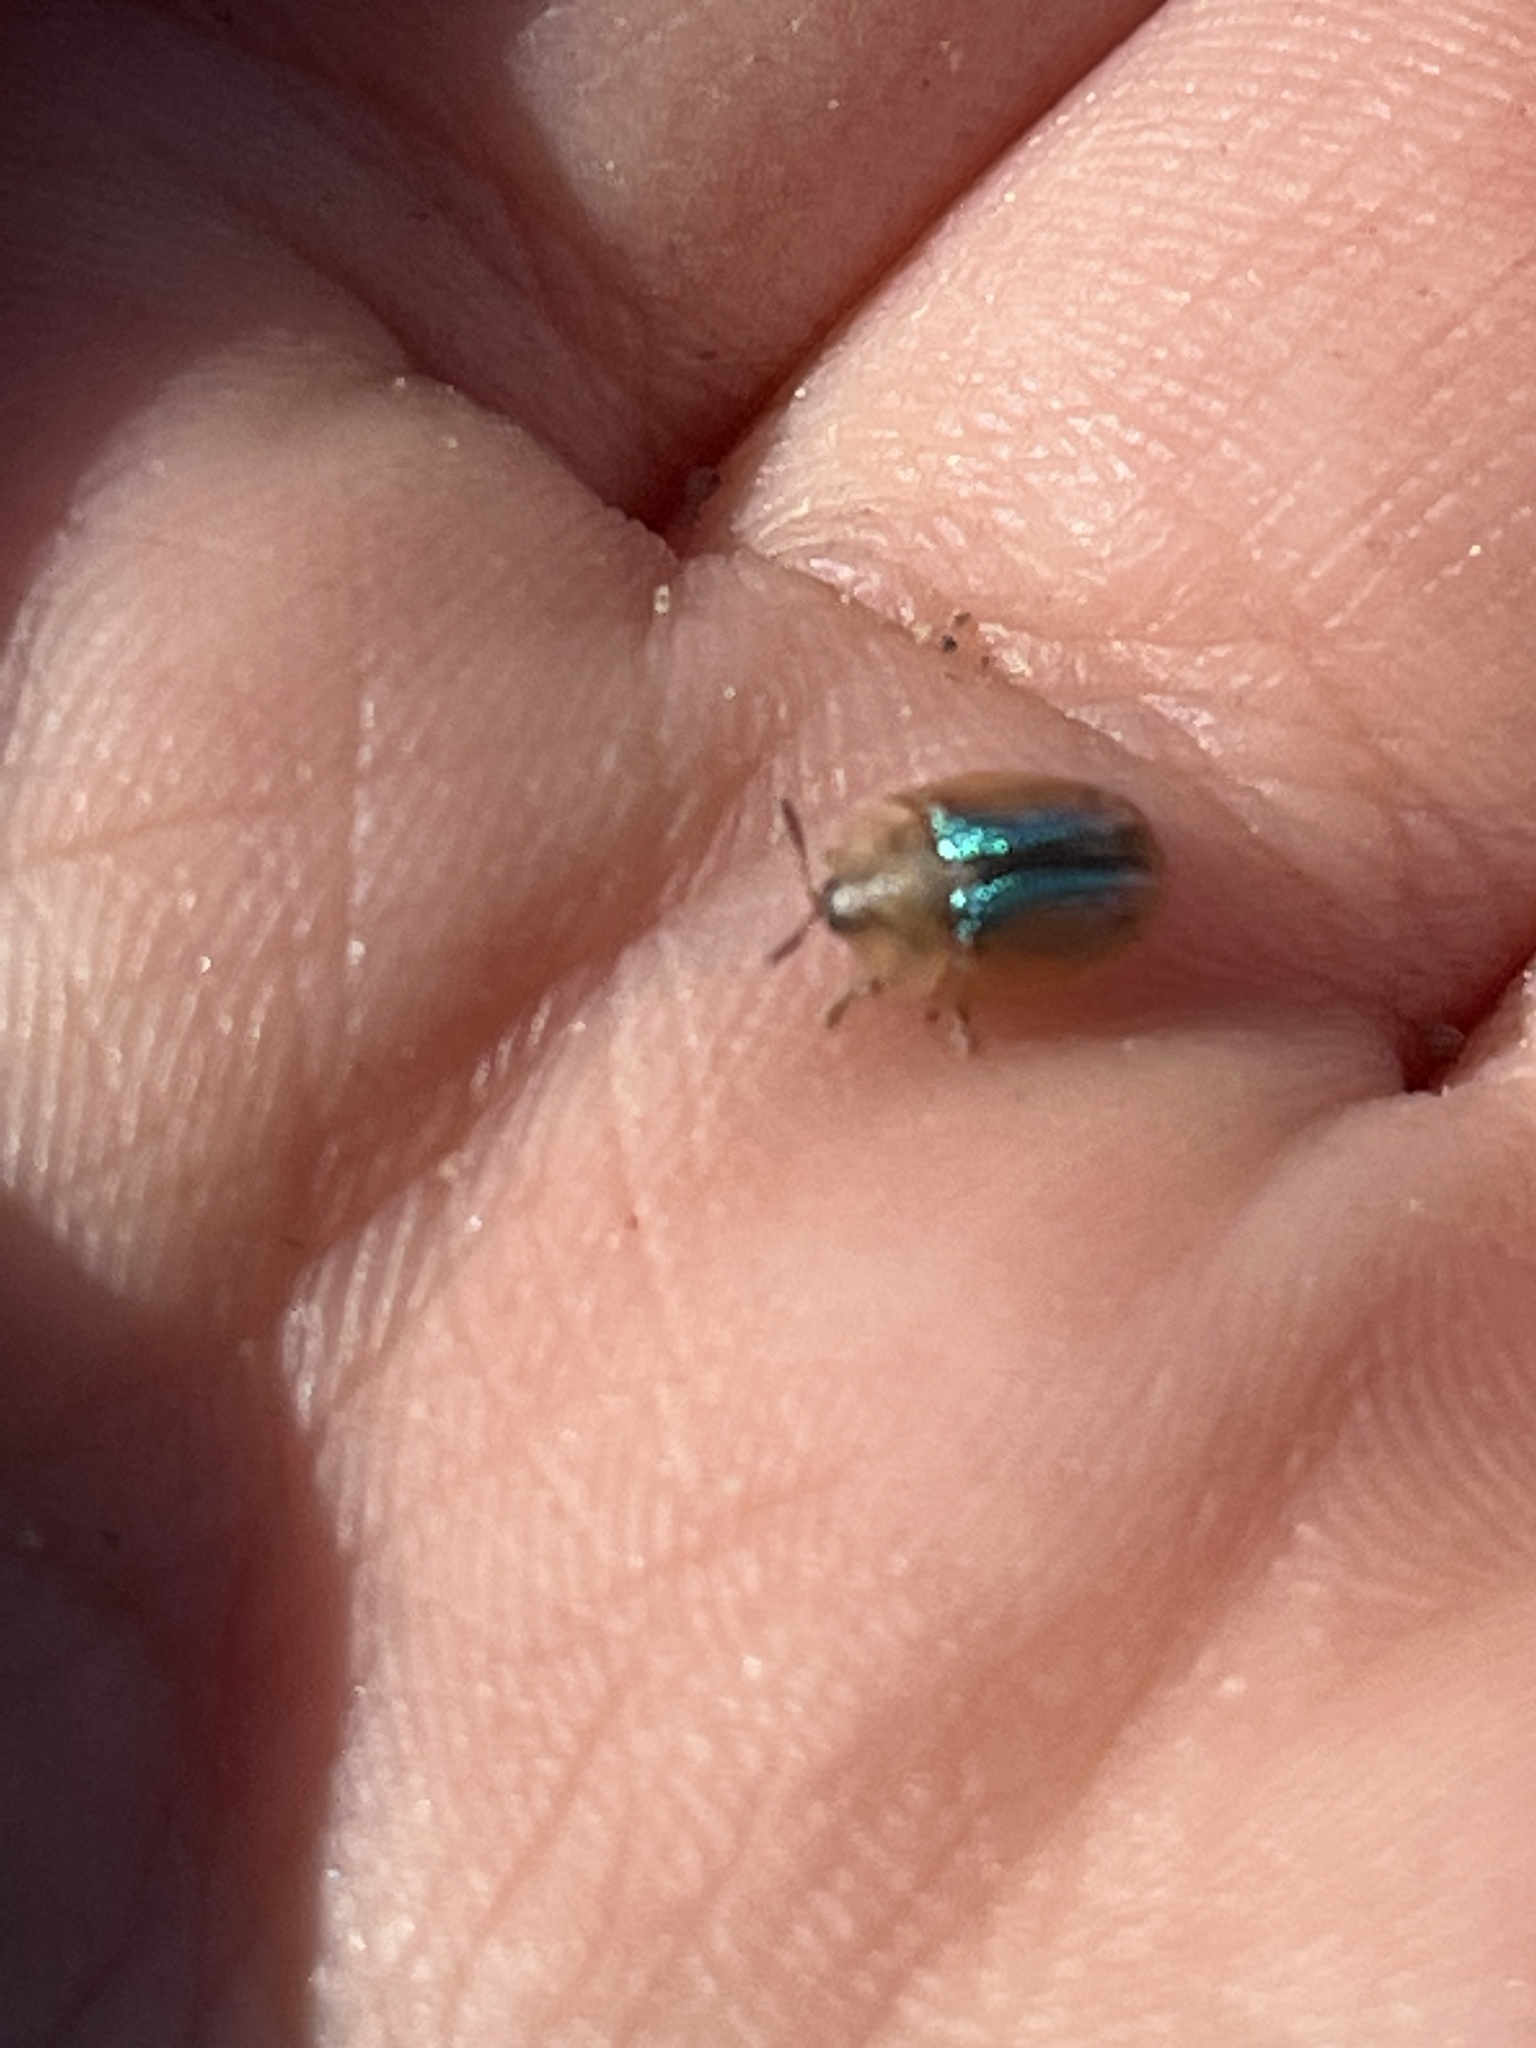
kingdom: Animalia
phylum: Arthropoda
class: Insecta
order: Coleoptera
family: Chrysomelidae
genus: Cassida
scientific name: Cassida nobilis
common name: Leaf beetle
